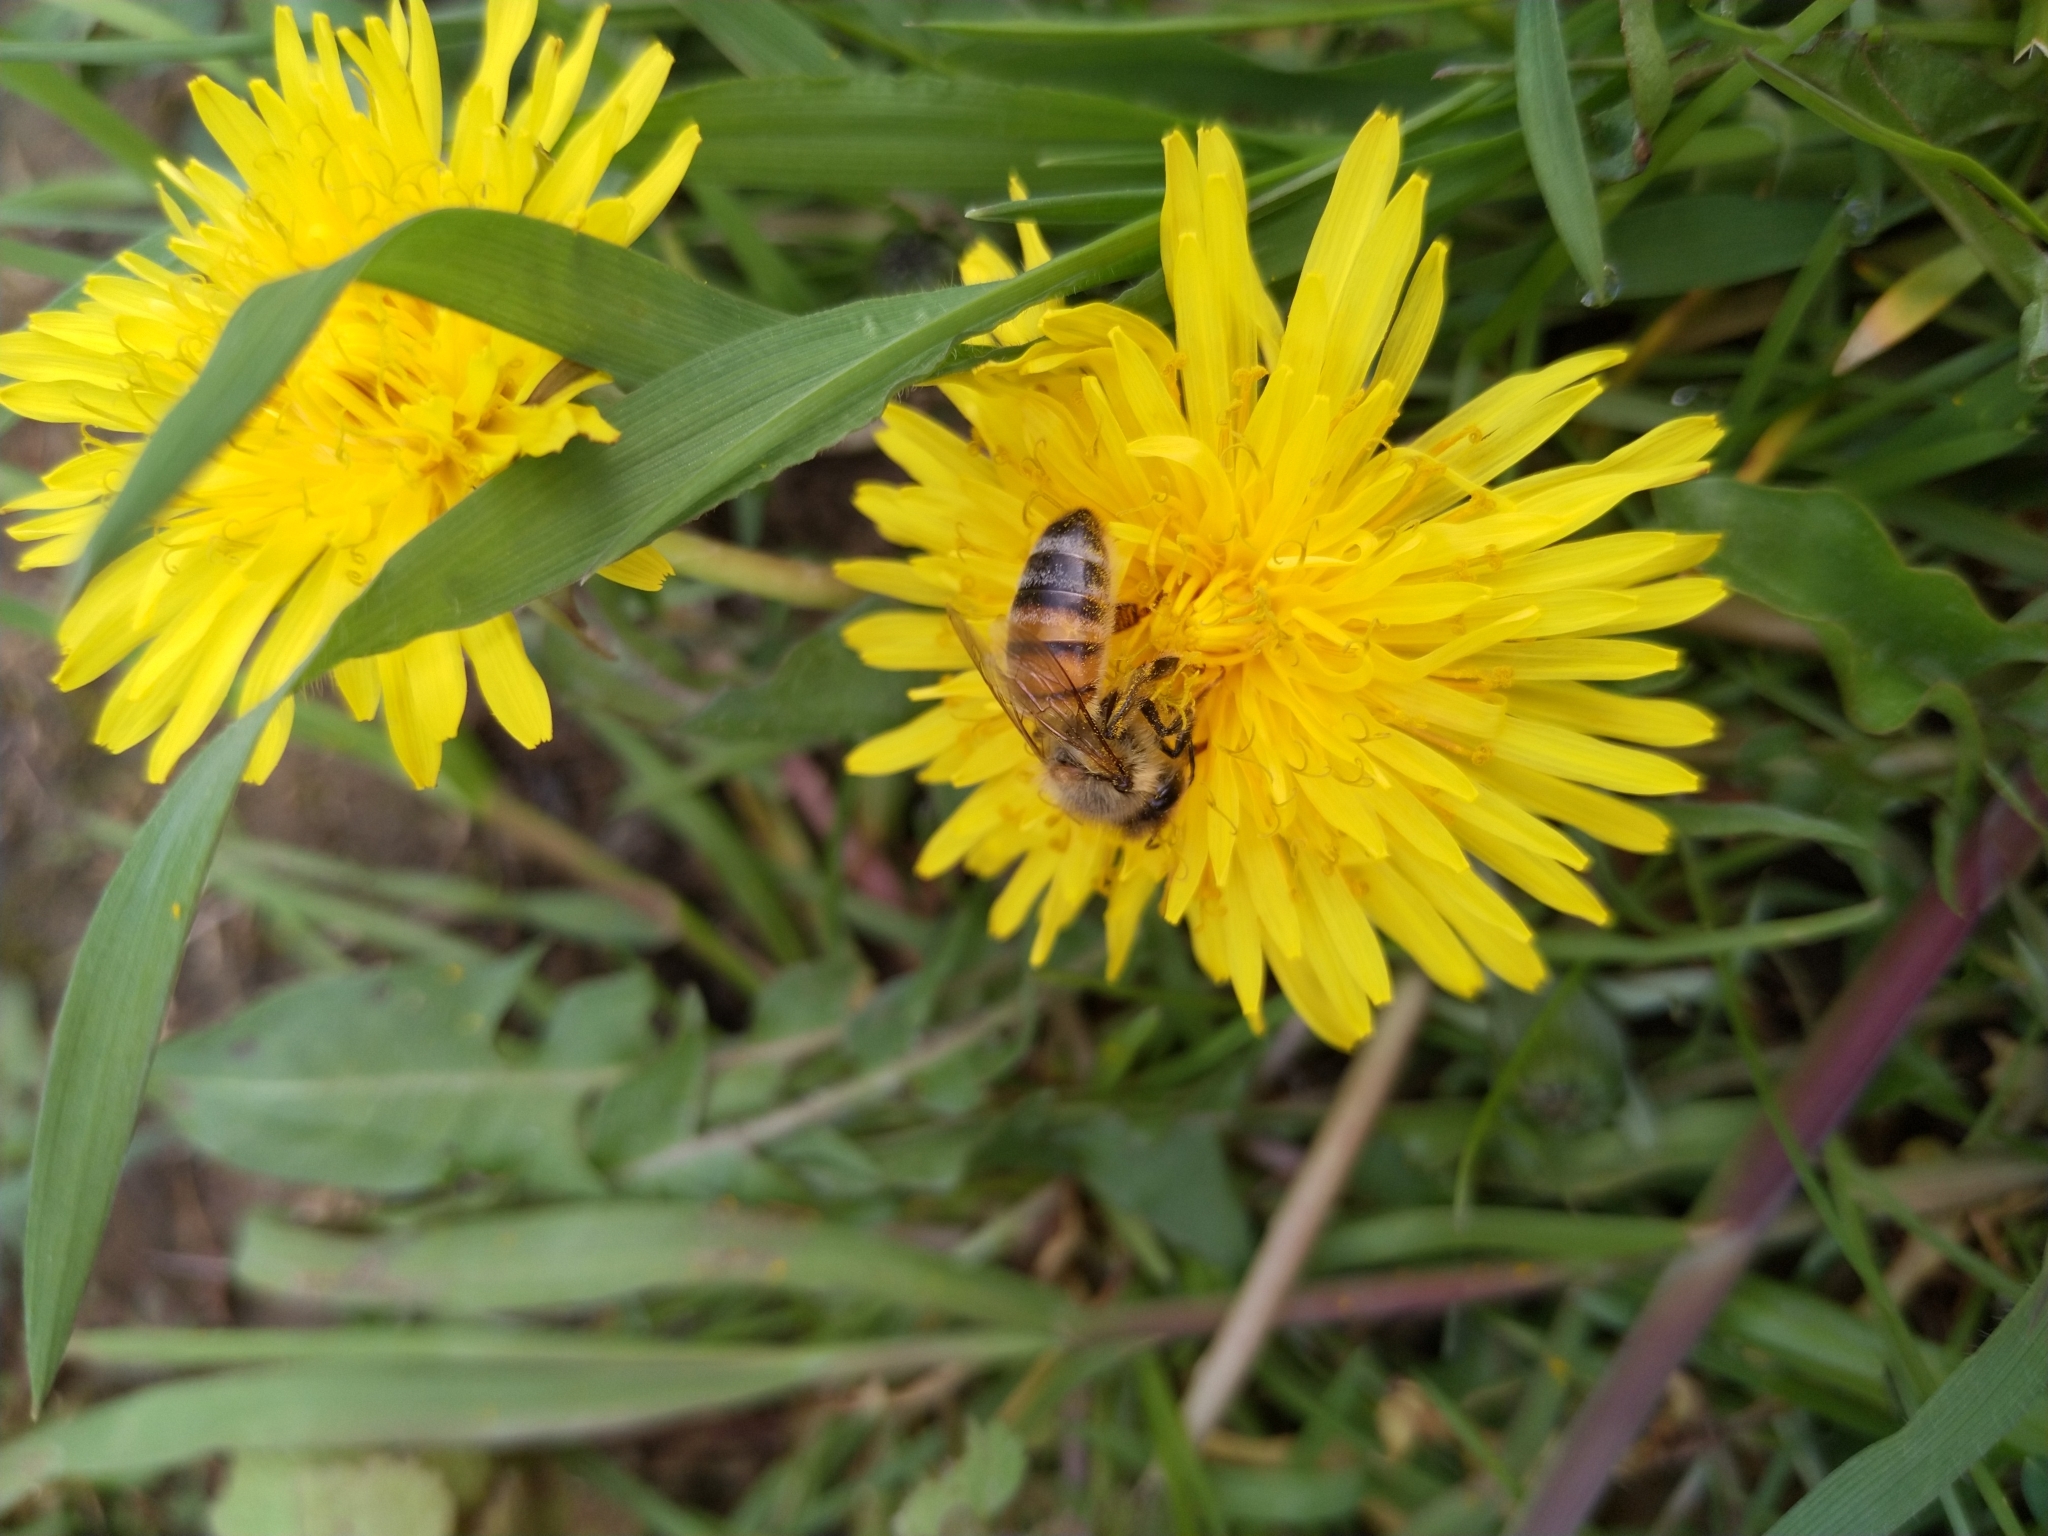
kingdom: Animalia
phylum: Arthropoda
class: Insecta
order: Hymenoptera
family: Apidae
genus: Apis
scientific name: Apis mellifera
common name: Honey bee
